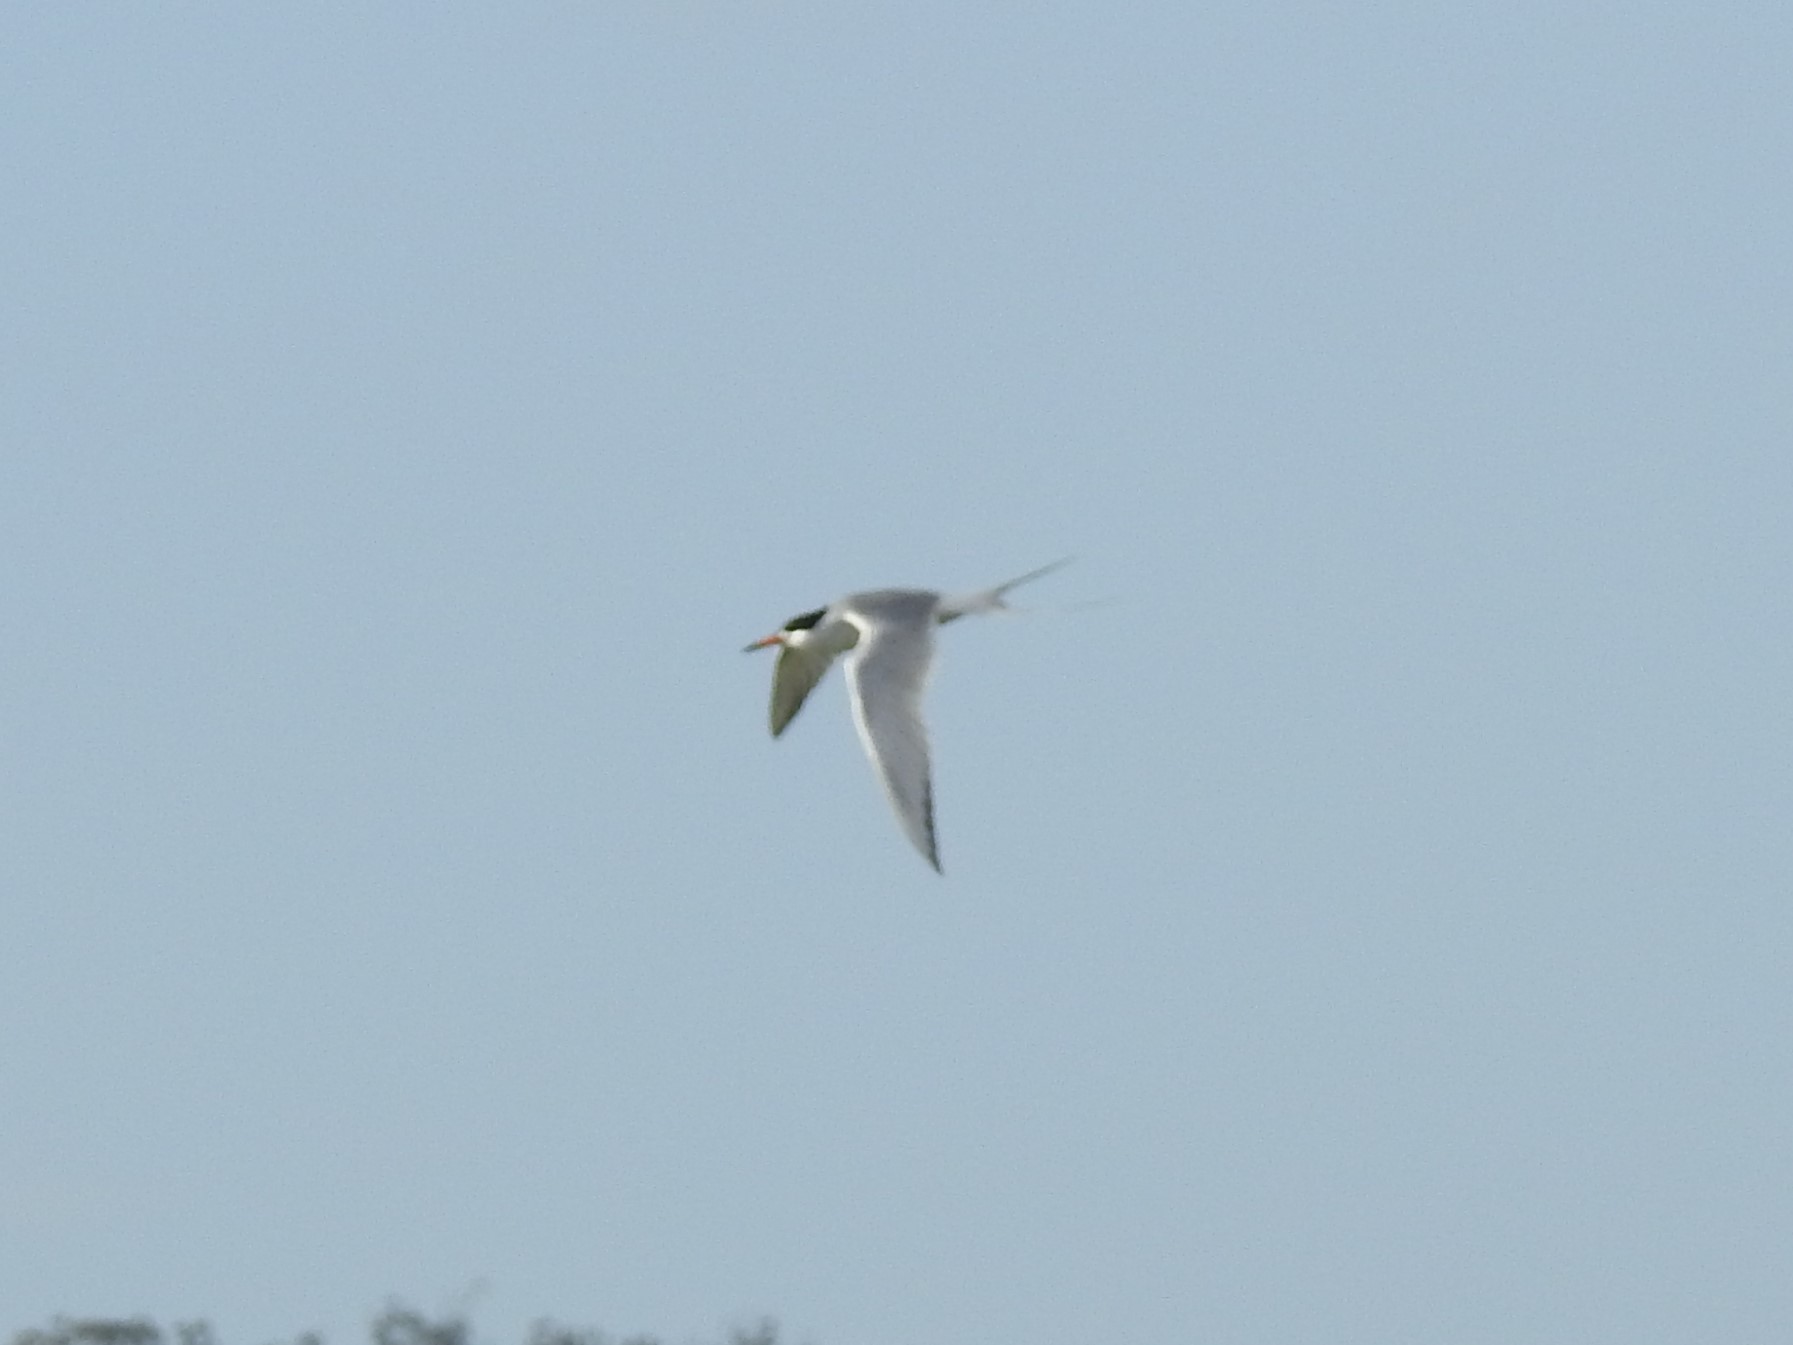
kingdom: Animalia
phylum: Chordata
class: Aves
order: Charadriiformes
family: Laridae
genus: Sterna
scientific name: Sterna forsteri
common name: Forster's tern
